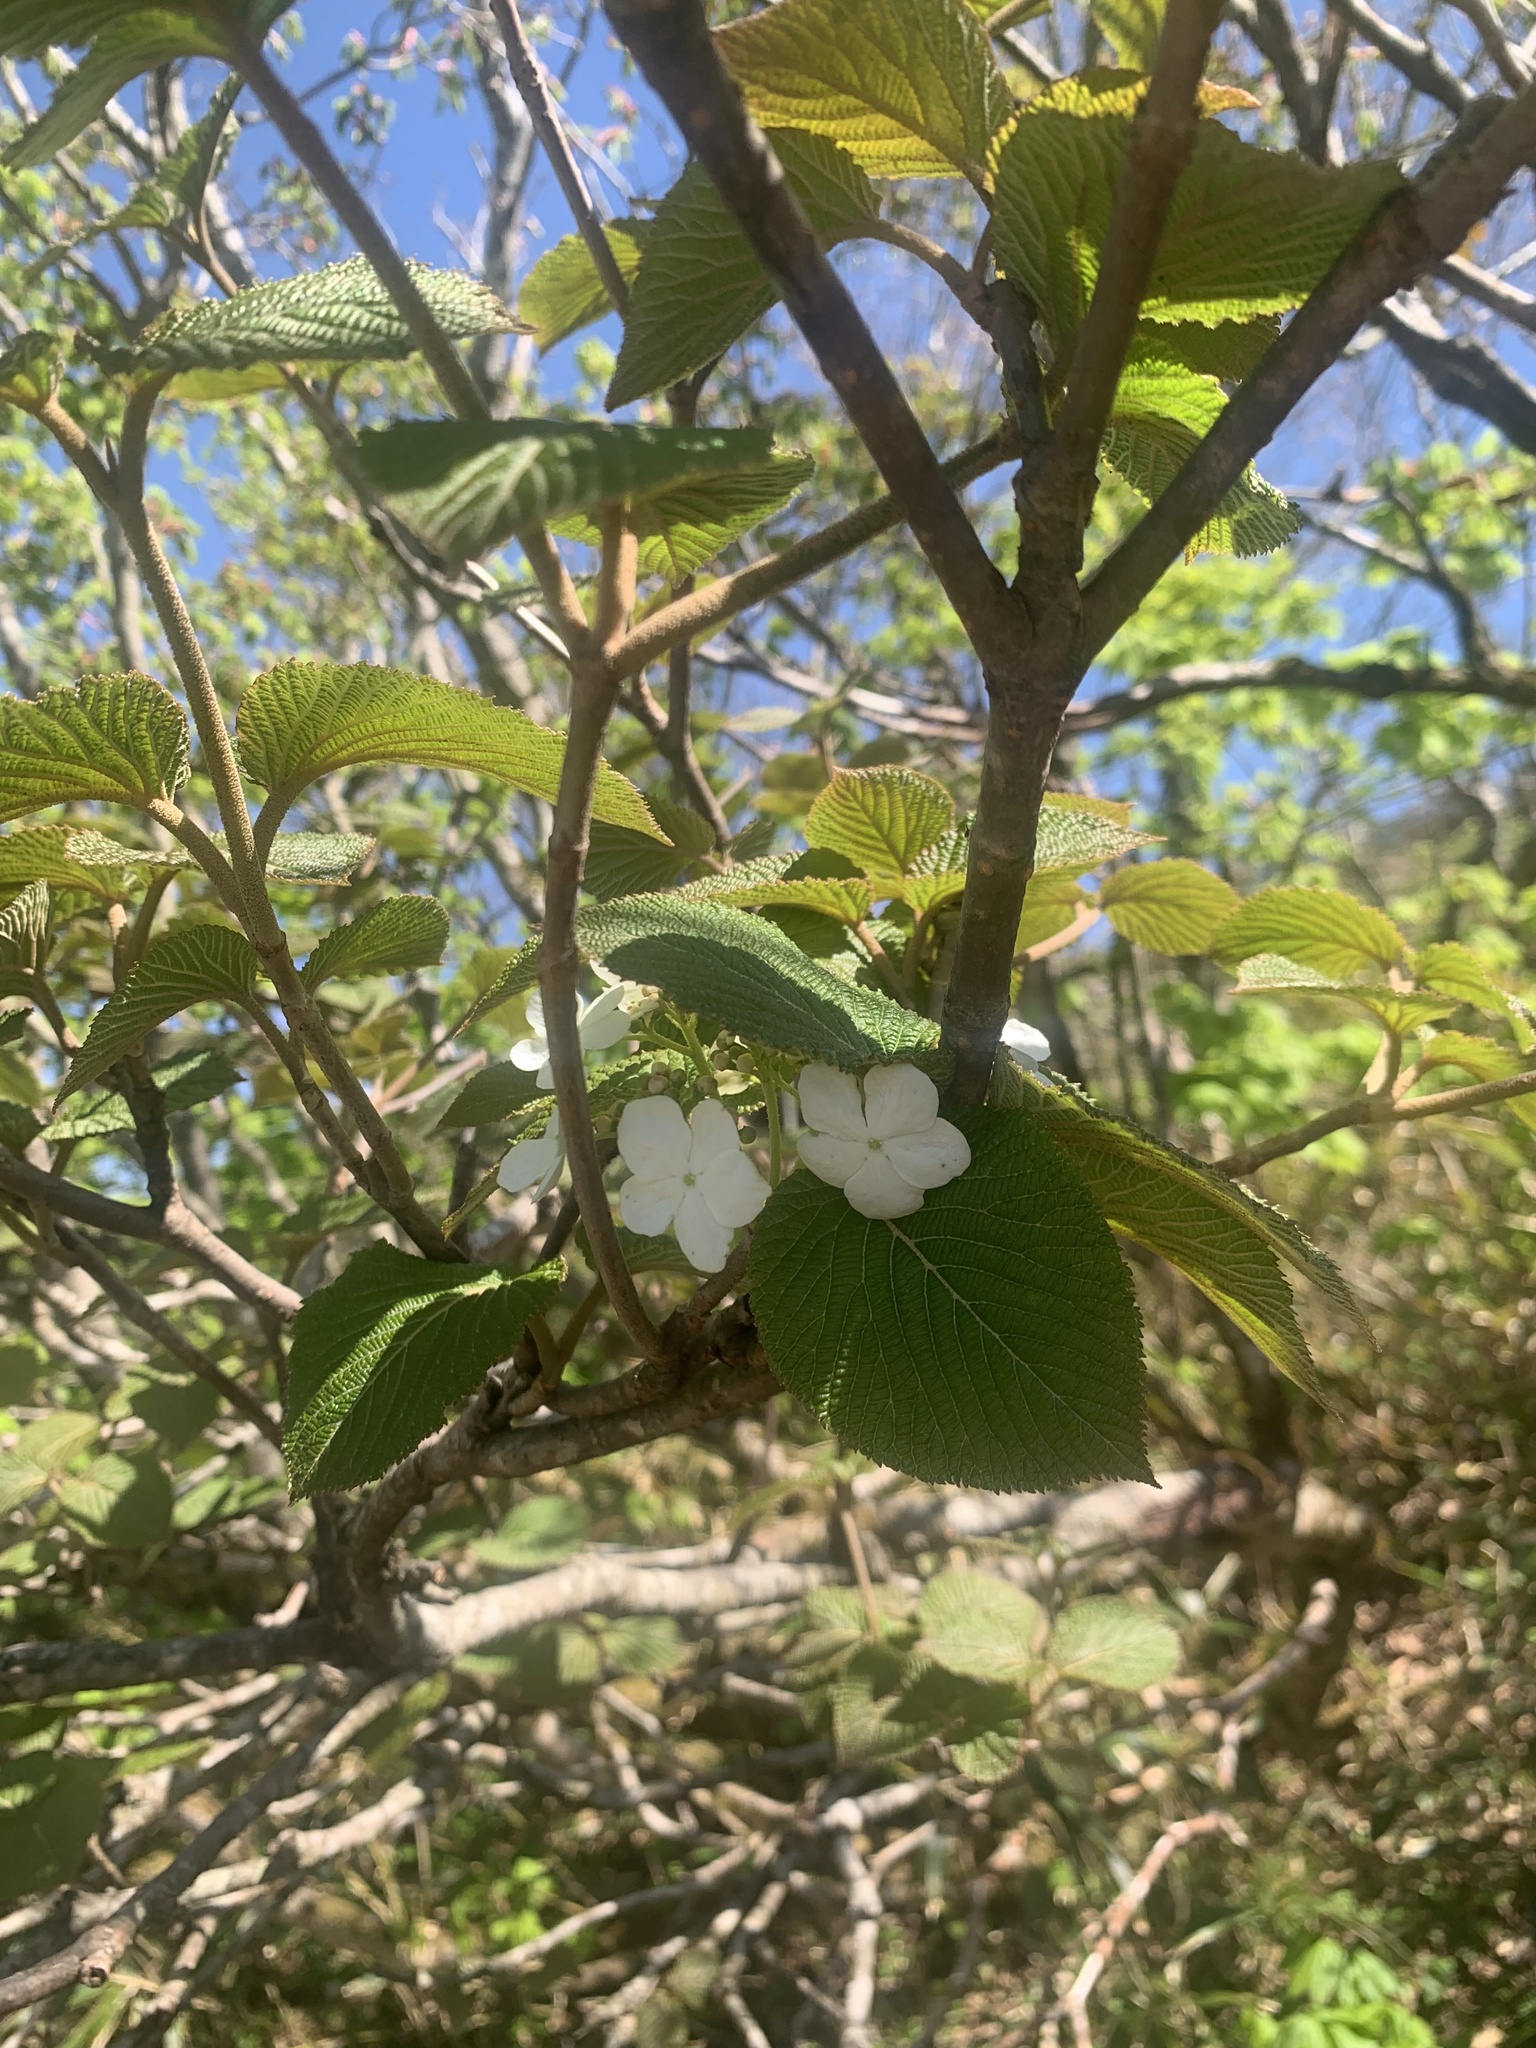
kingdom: Plantae
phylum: Tracheophyta
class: Magnoliopsida
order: Dipsacales
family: Viburnaceae
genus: Viburnum
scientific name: Viburnum furcatum
